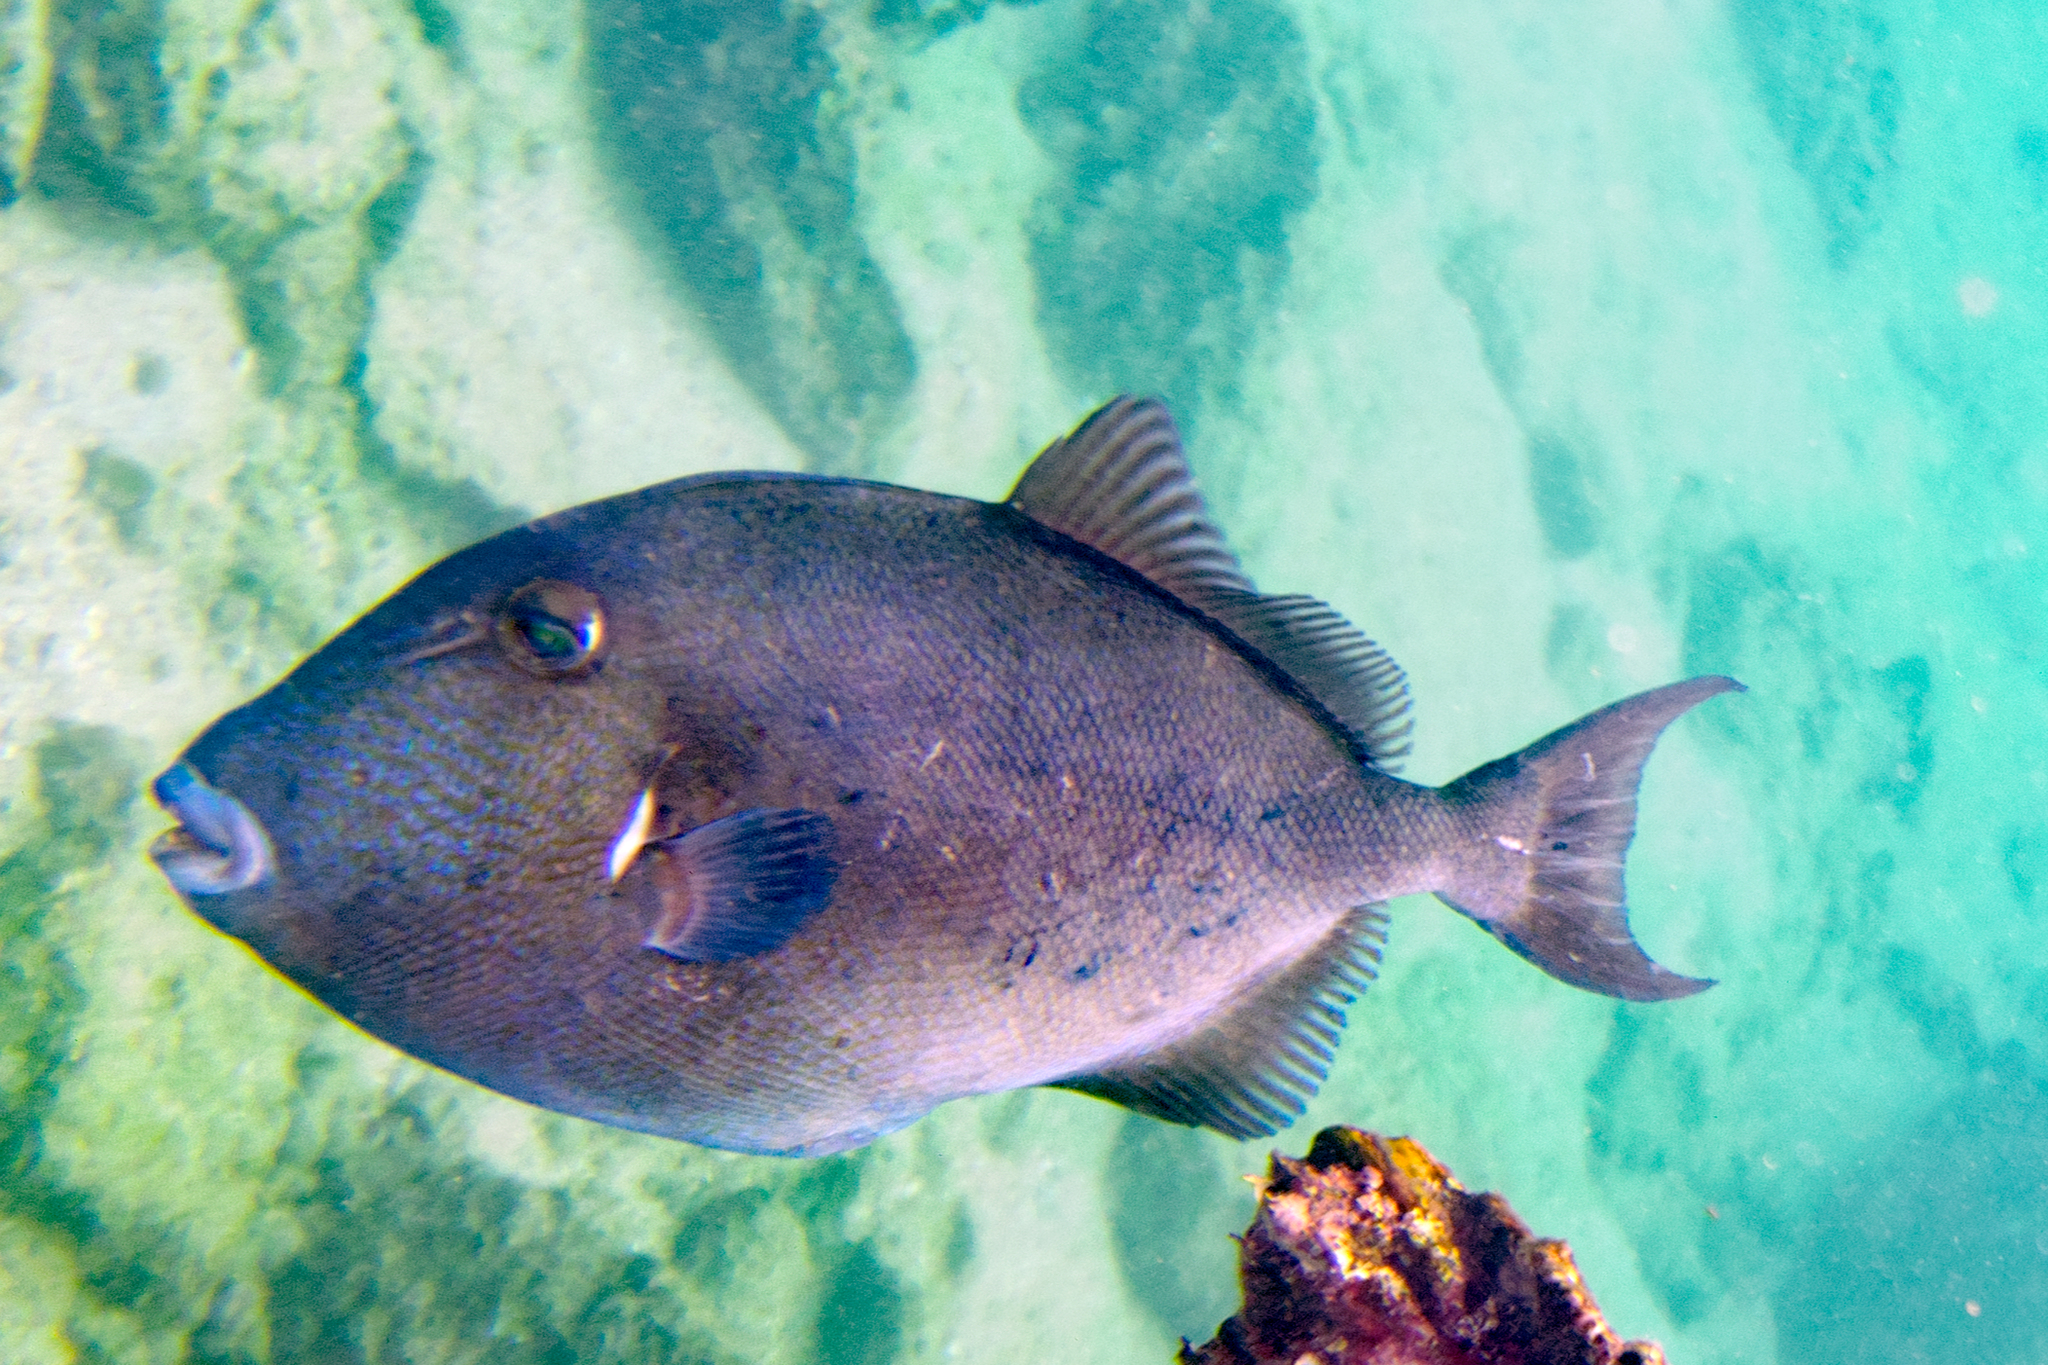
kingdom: Animalia
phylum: Chordata
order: Tetraodontiformes
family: Balistidae
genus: Balistes
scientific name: Balistes polylepis
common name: Finescale triggerfish
